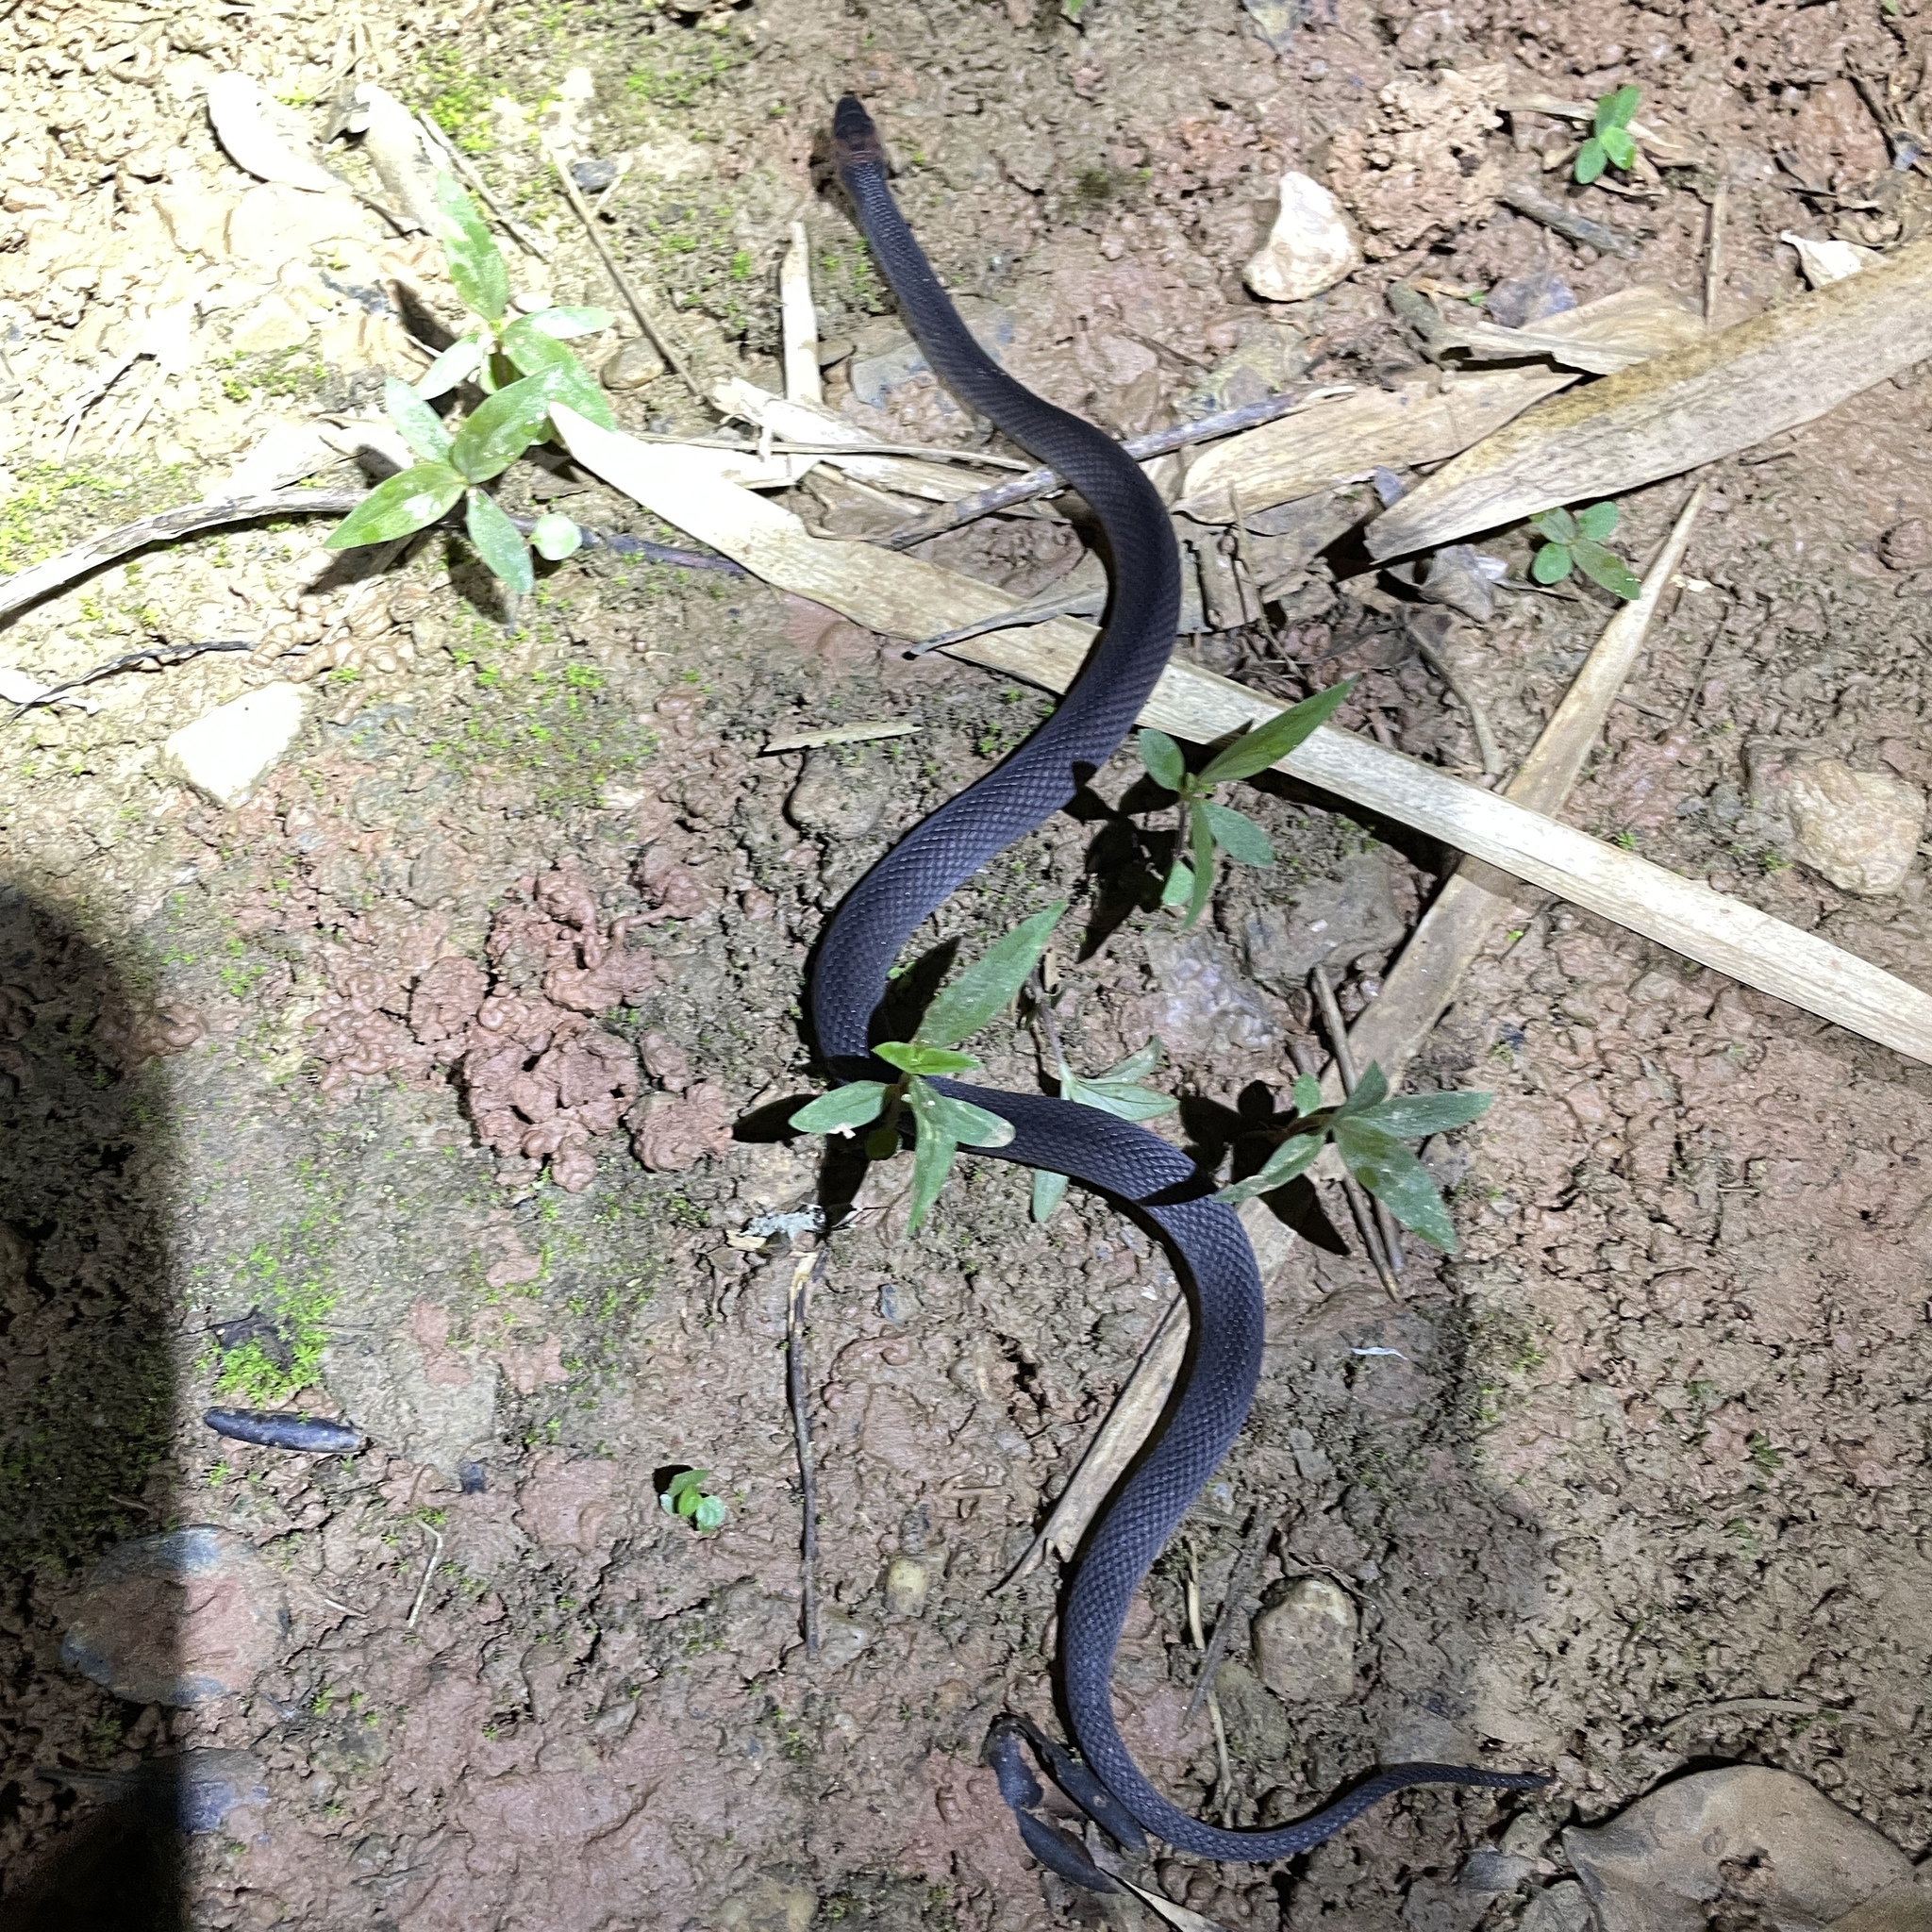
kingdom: Animalia
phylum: Chordata
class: Squamata
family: Colubridae
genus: Ninia
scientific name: Ninia atrata
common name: Hallowell's coffee snake
